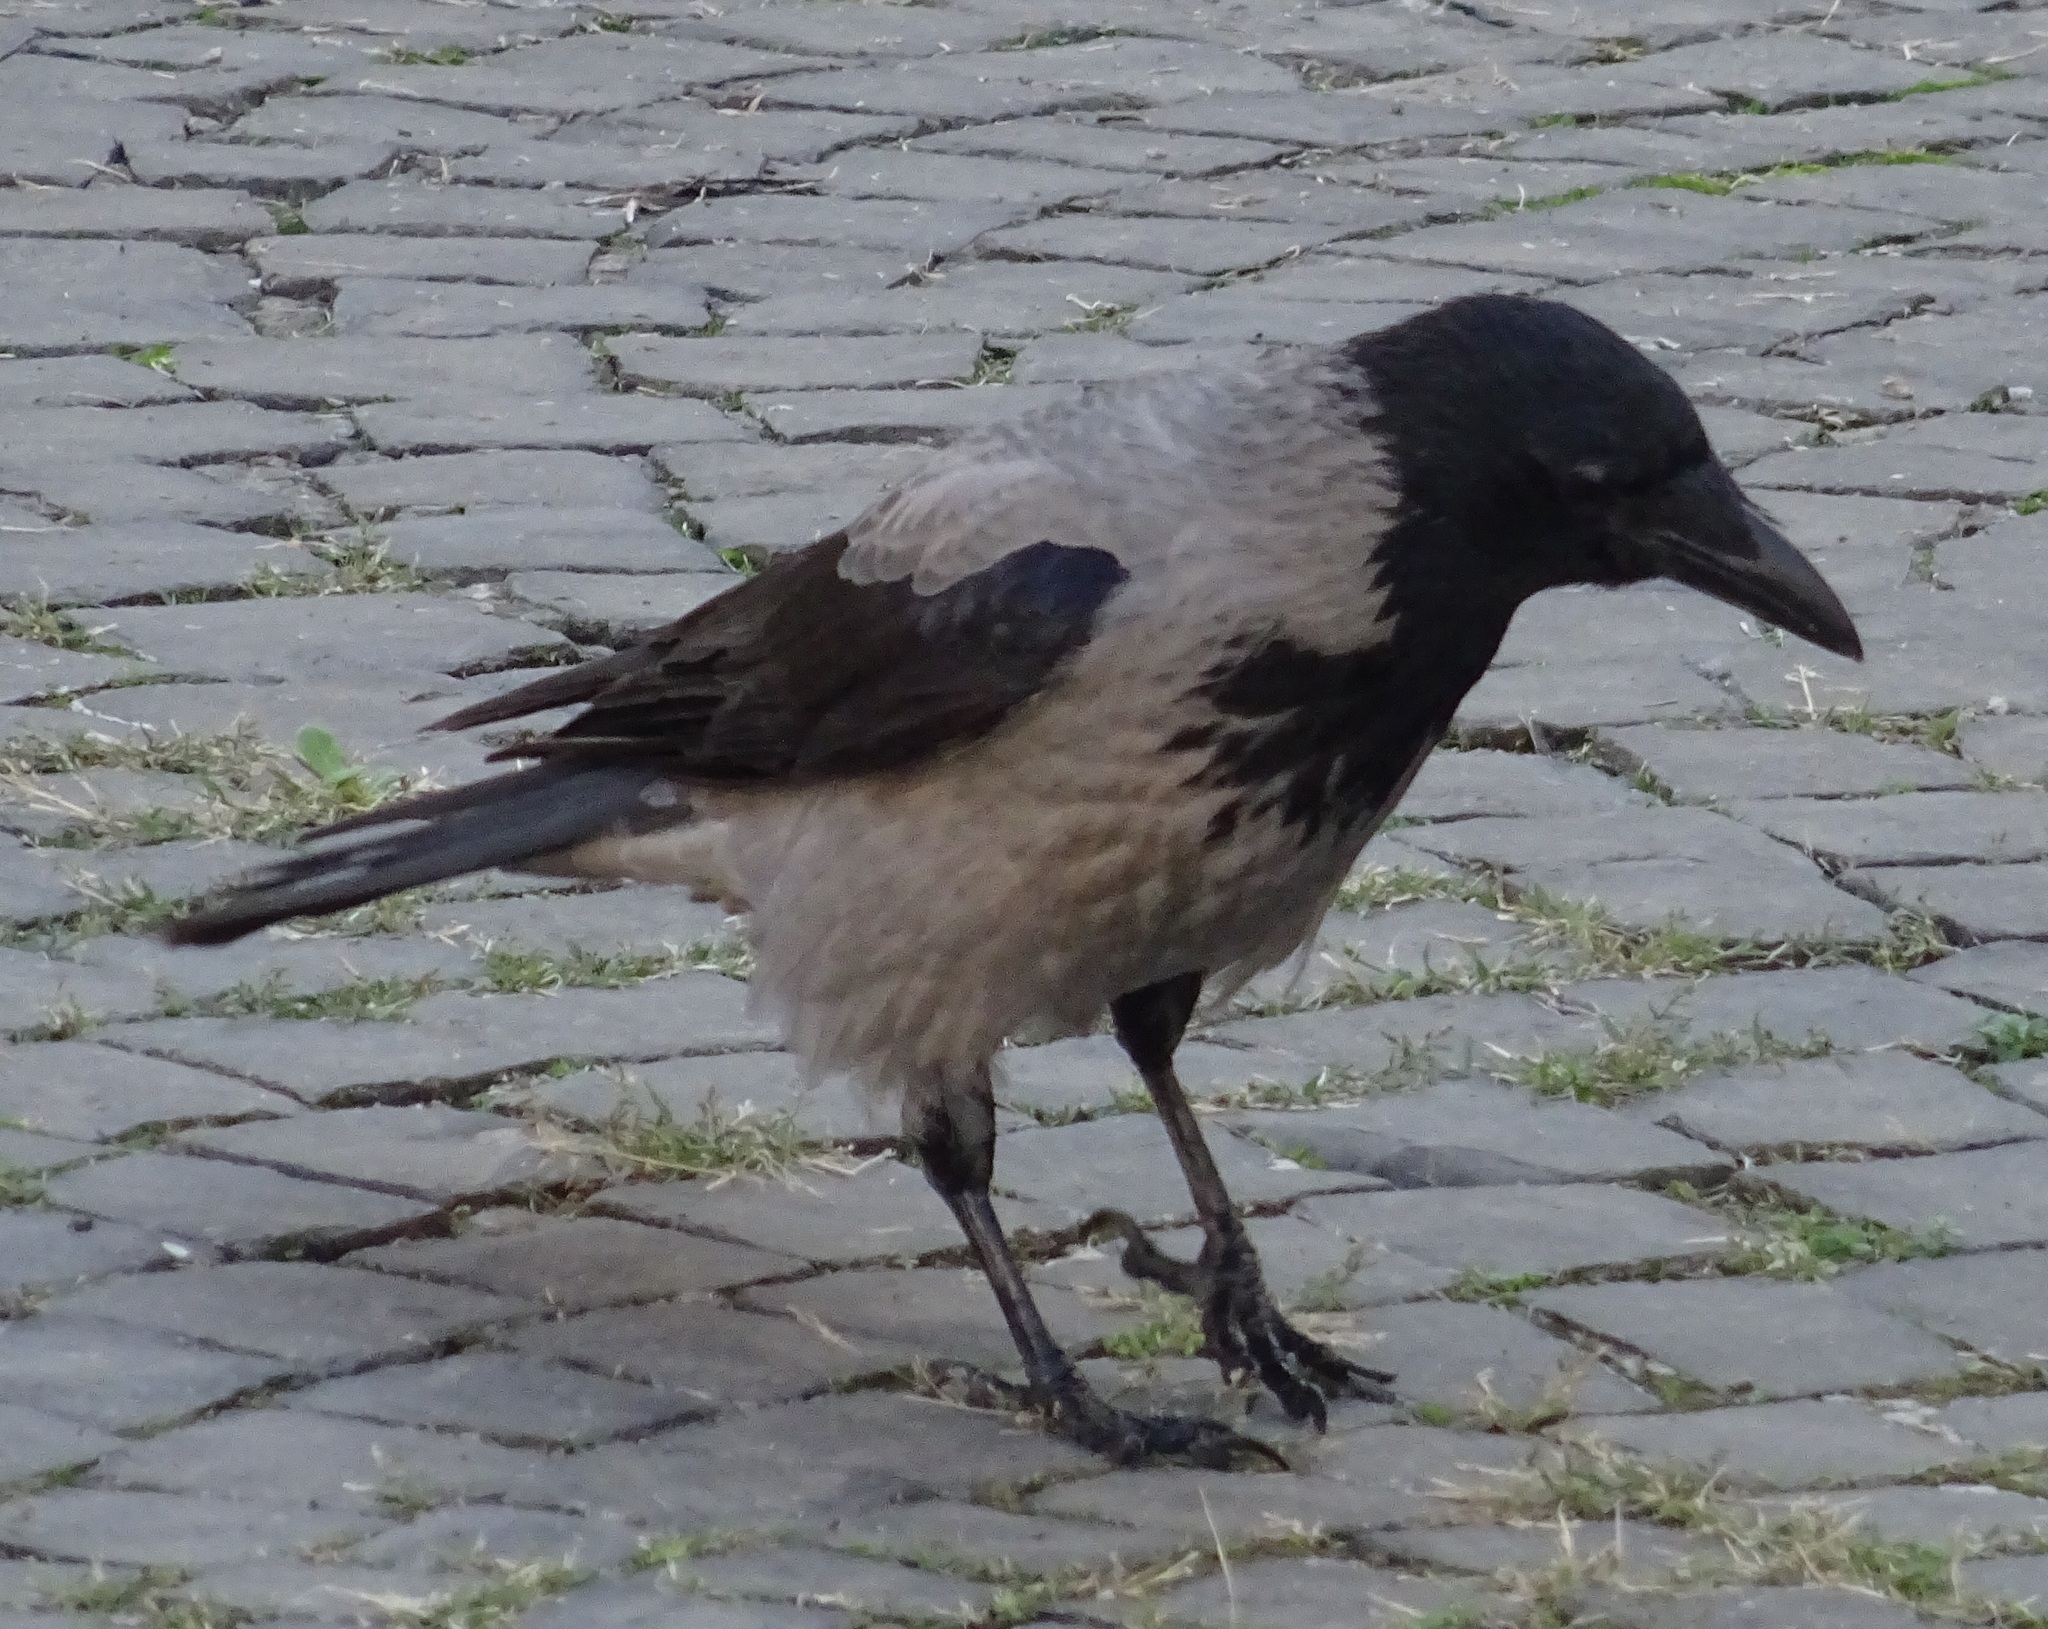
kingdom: Animalia
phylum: Chordata
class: Aves
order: Passeriformes
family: Corvidae
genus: Corvus
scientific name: Corvus cornix
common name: Hooded crow
